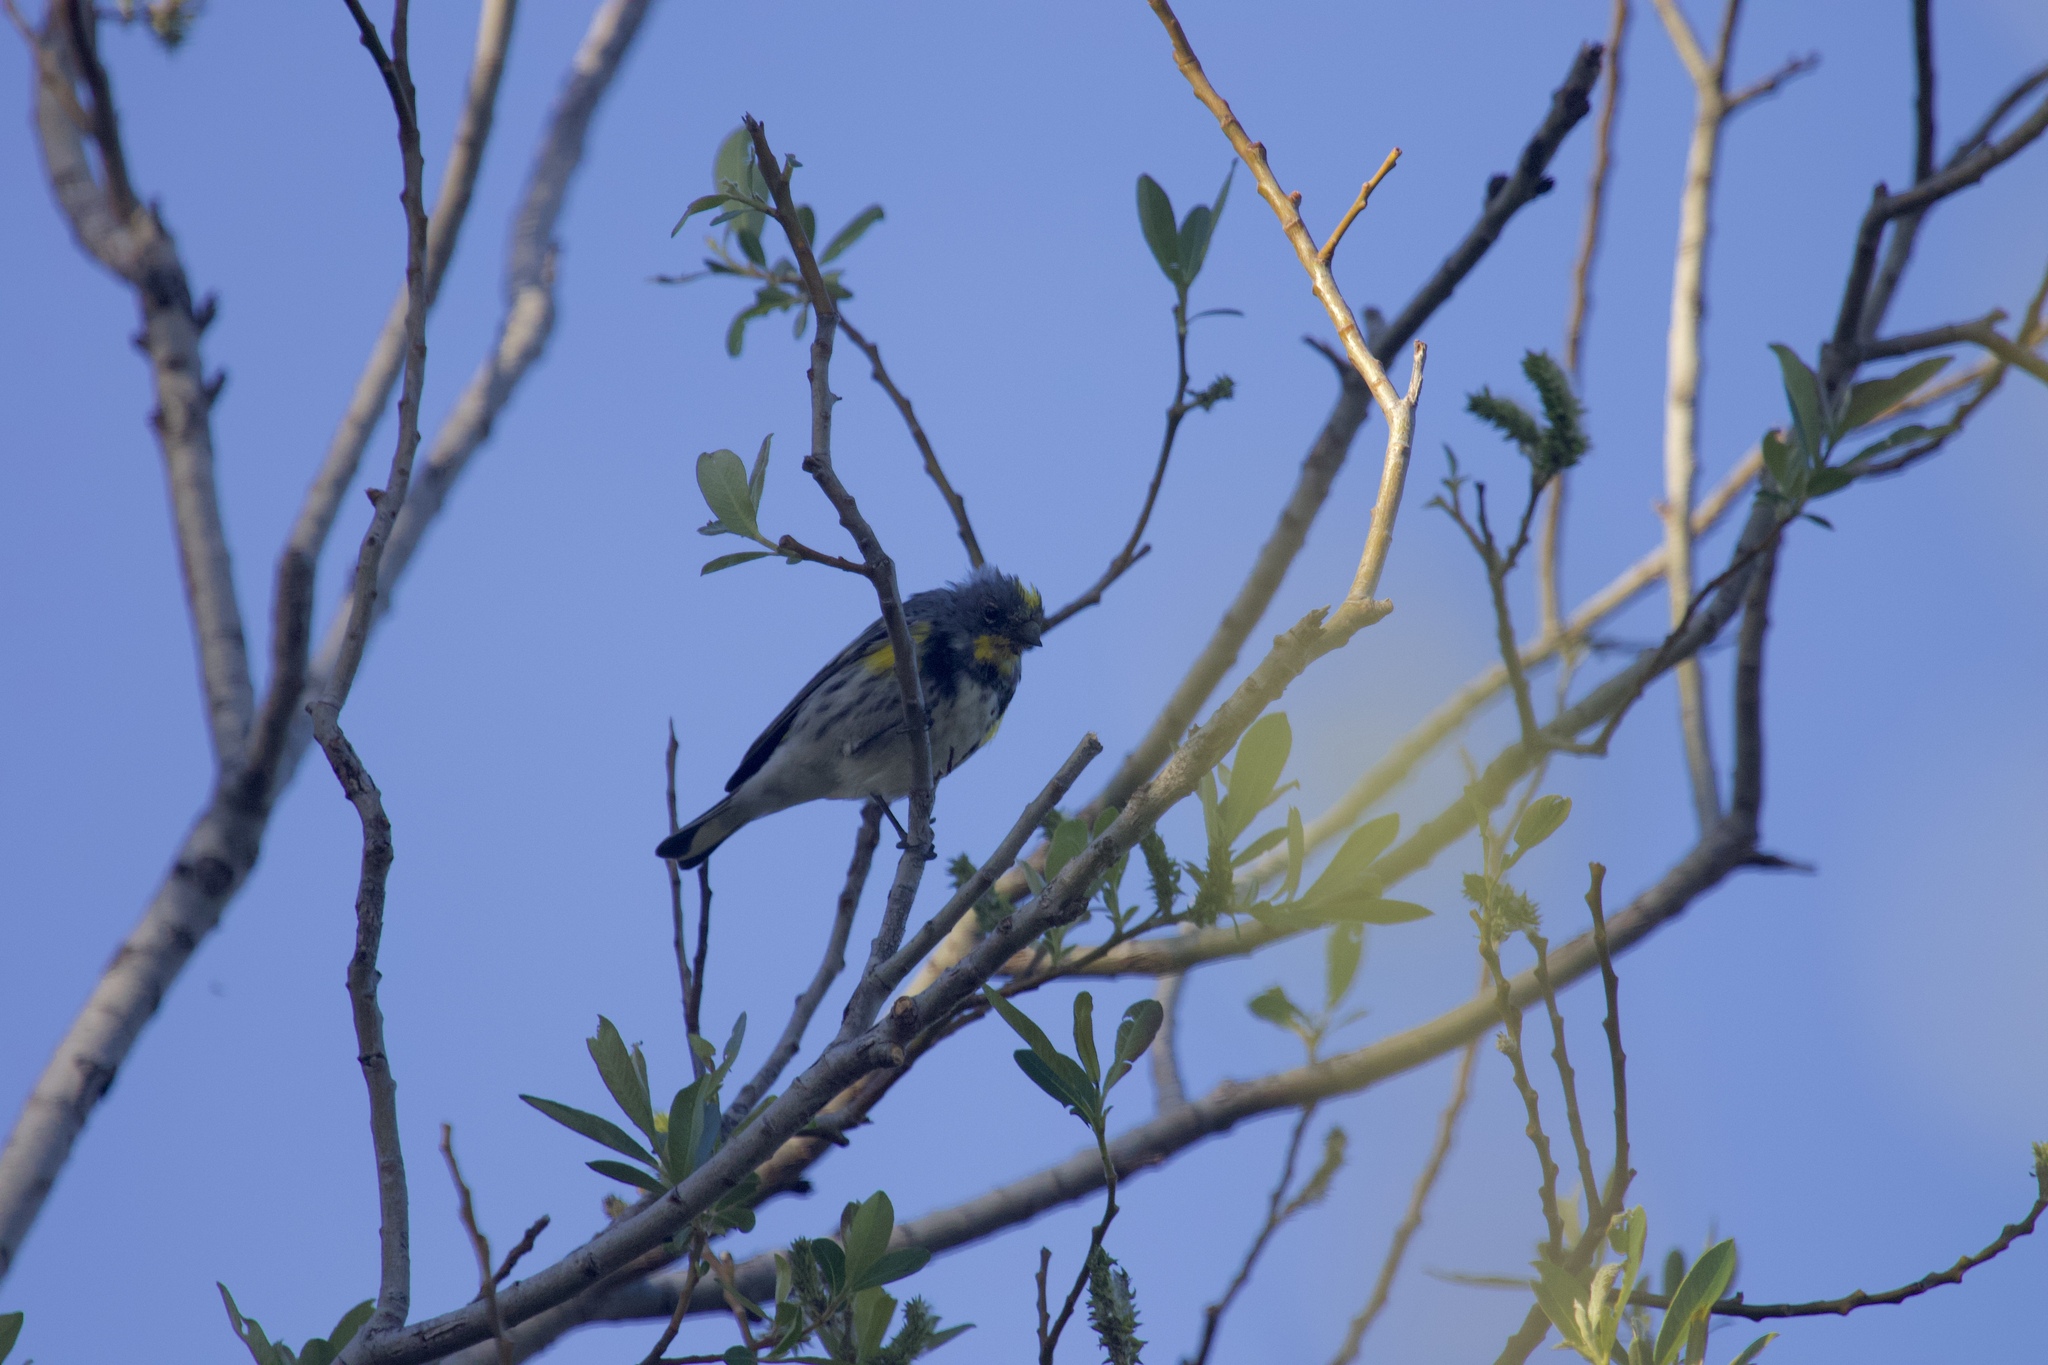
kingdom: Animalia
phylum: Chordata
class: Aves
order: Passeriformes
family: Parulidae
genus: Setophaga
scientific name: Setophaga coronata
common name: Myrtle warbler
